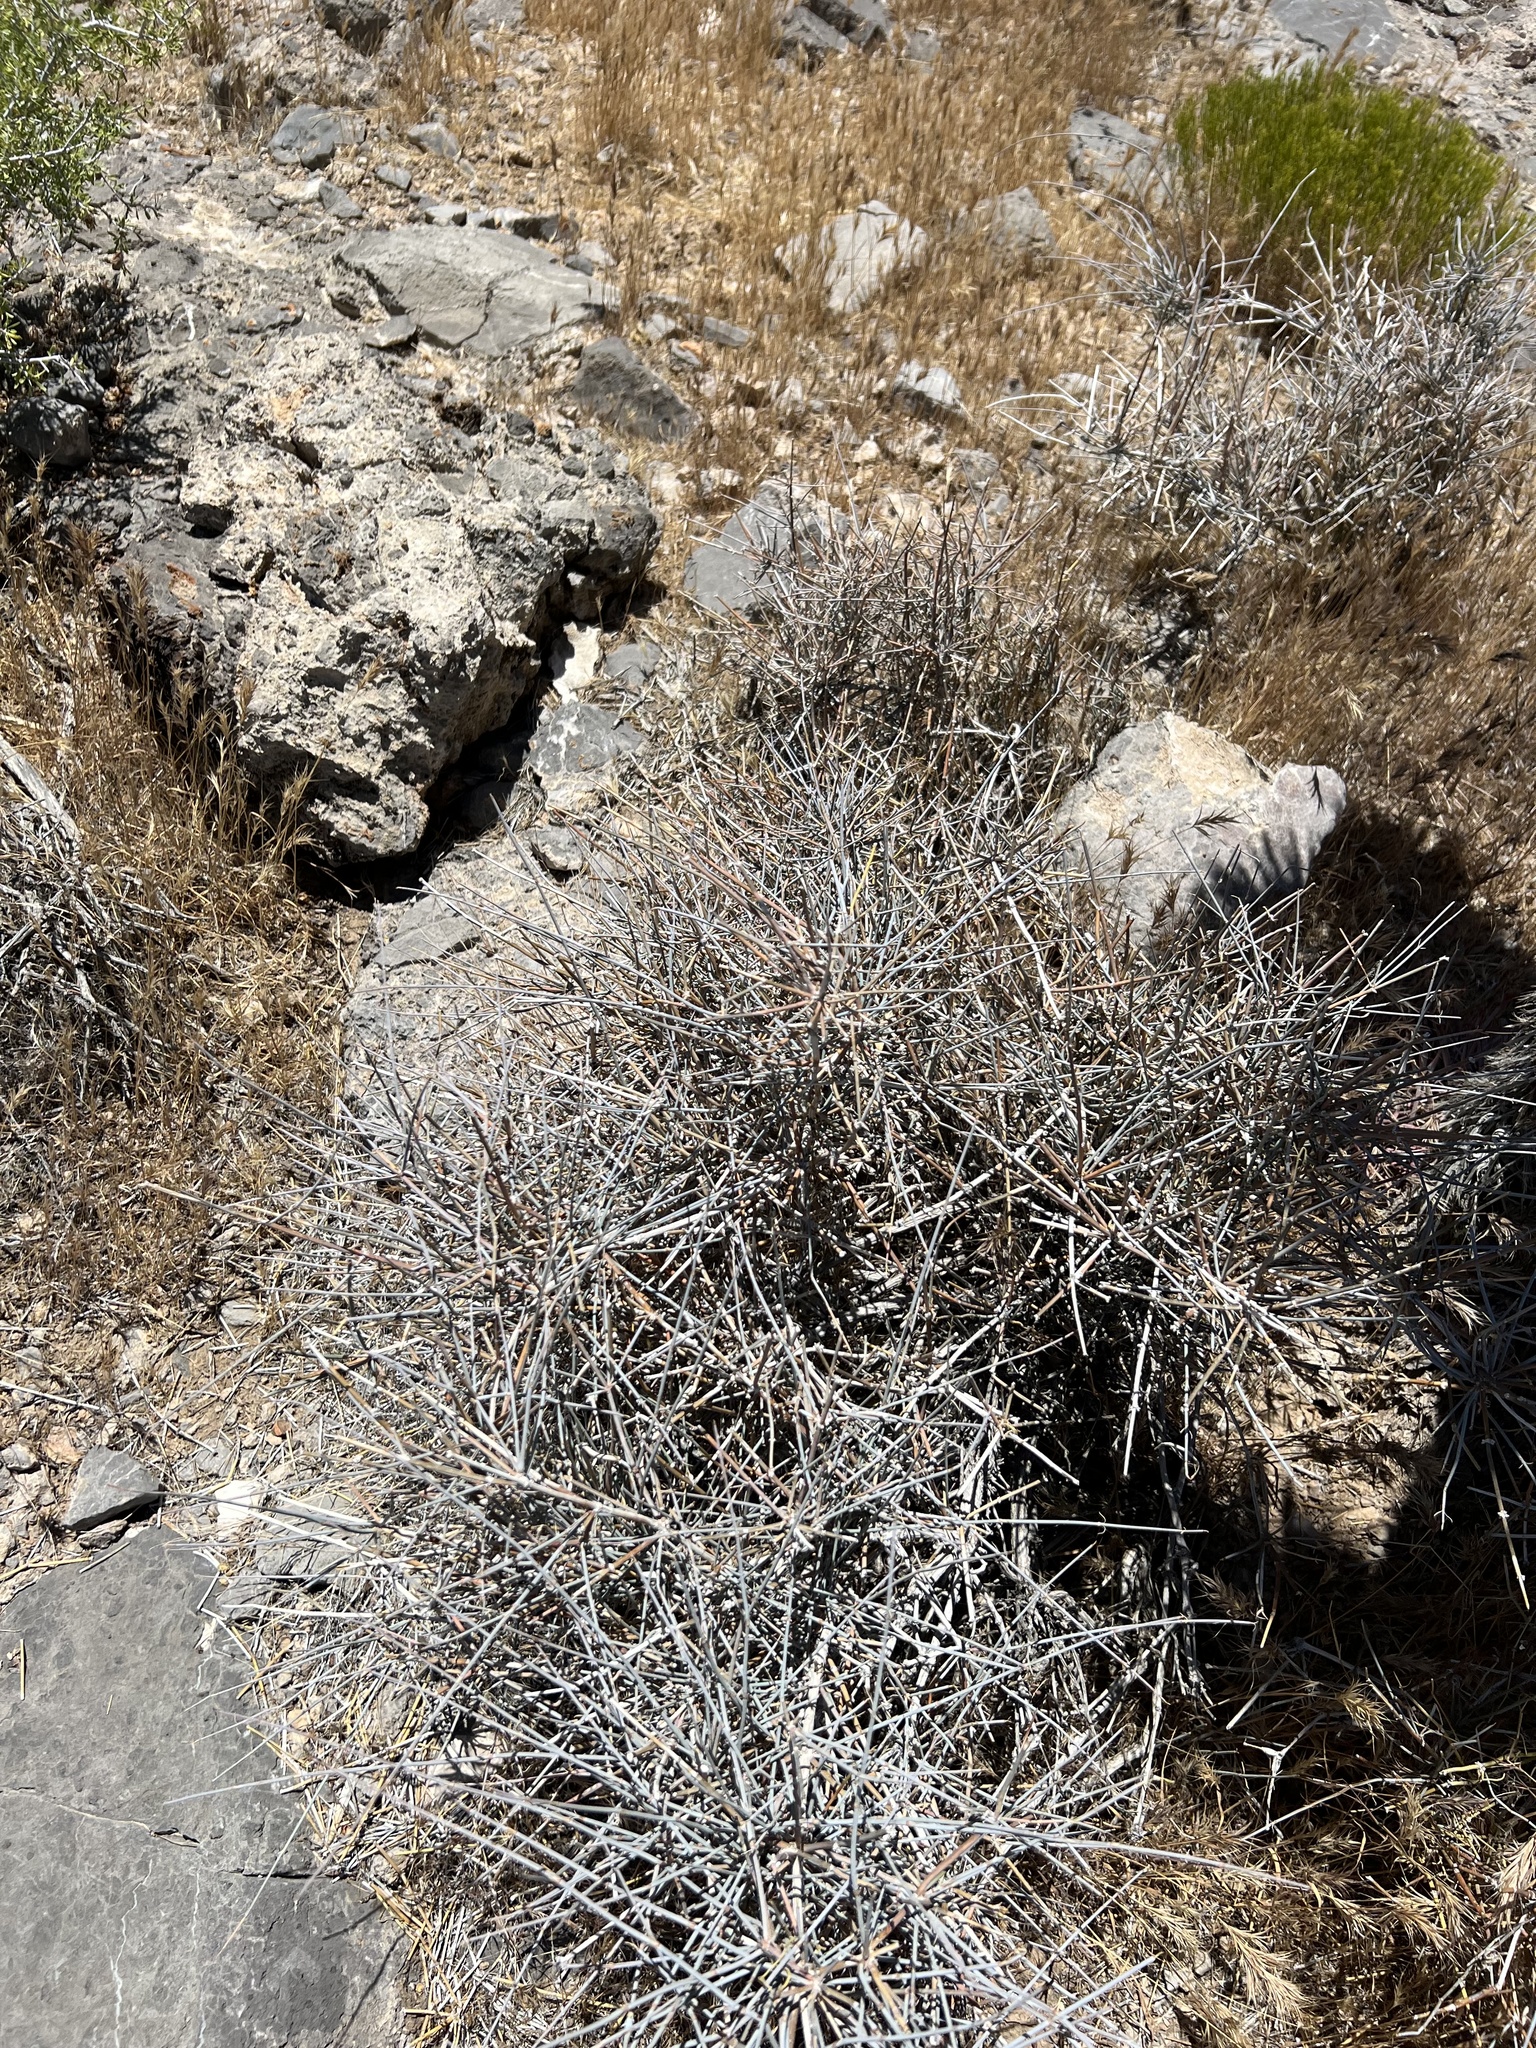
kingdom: Plantae
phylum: Tracheophyta
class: Gnetopsida
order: Ephedrales
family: Ephedraceae
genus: Ephedra
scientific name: Ephedra nevadensis
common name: Gray ephedra
